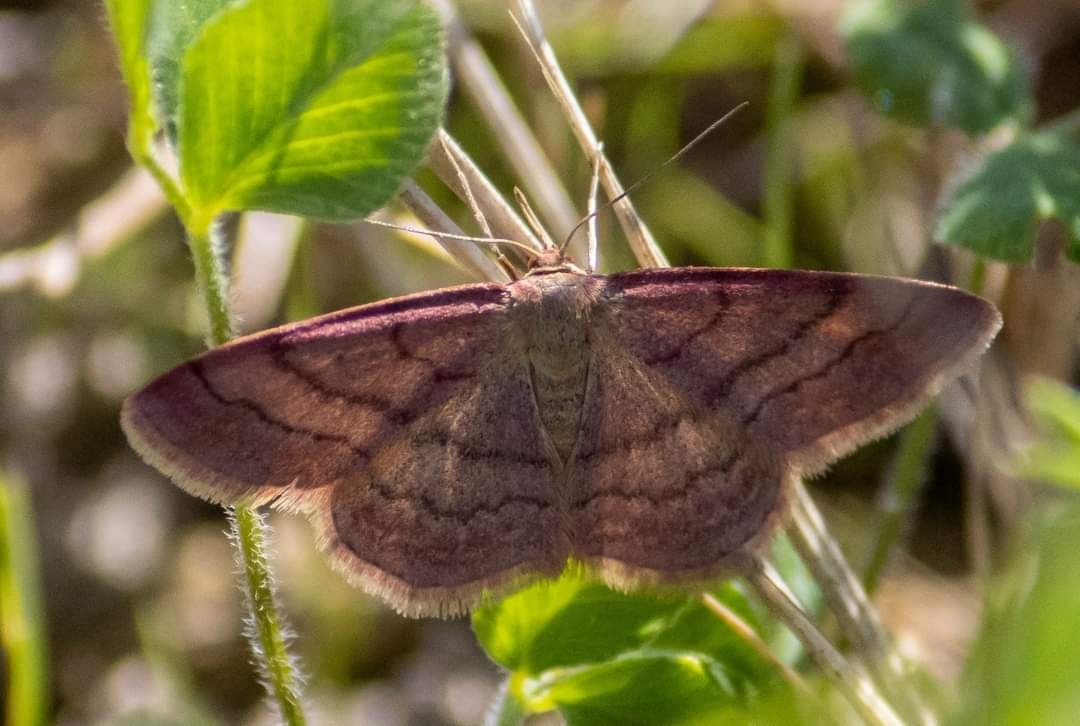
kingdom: Animalia
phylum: Arthropoda
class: Insecta
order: Lepidoptera
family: Geometridae
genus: Scopula
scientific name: Scopula rubiginata
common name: Tawny wave
